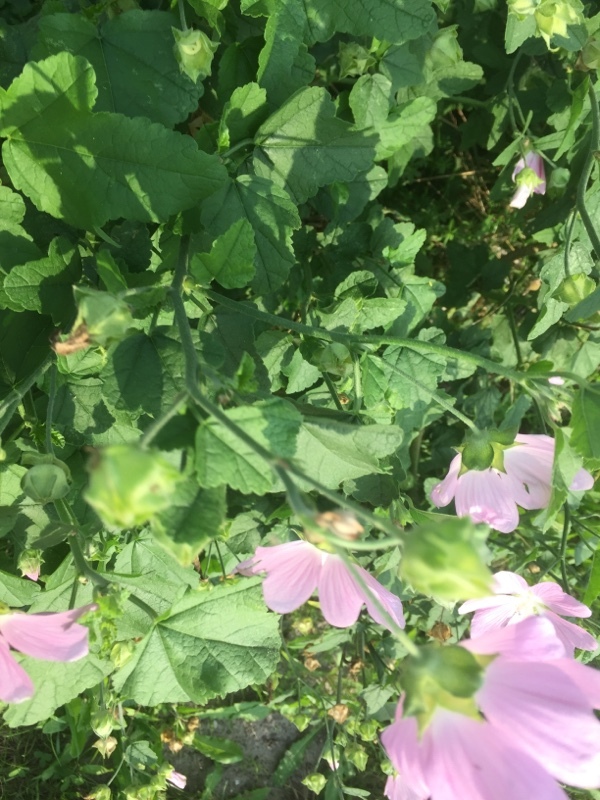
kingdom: Plantae
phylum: Tracheophyta
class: Magnoliopsida
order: Malvales
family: Malvaceae
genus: Malva
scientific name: Malva thuringiaca
